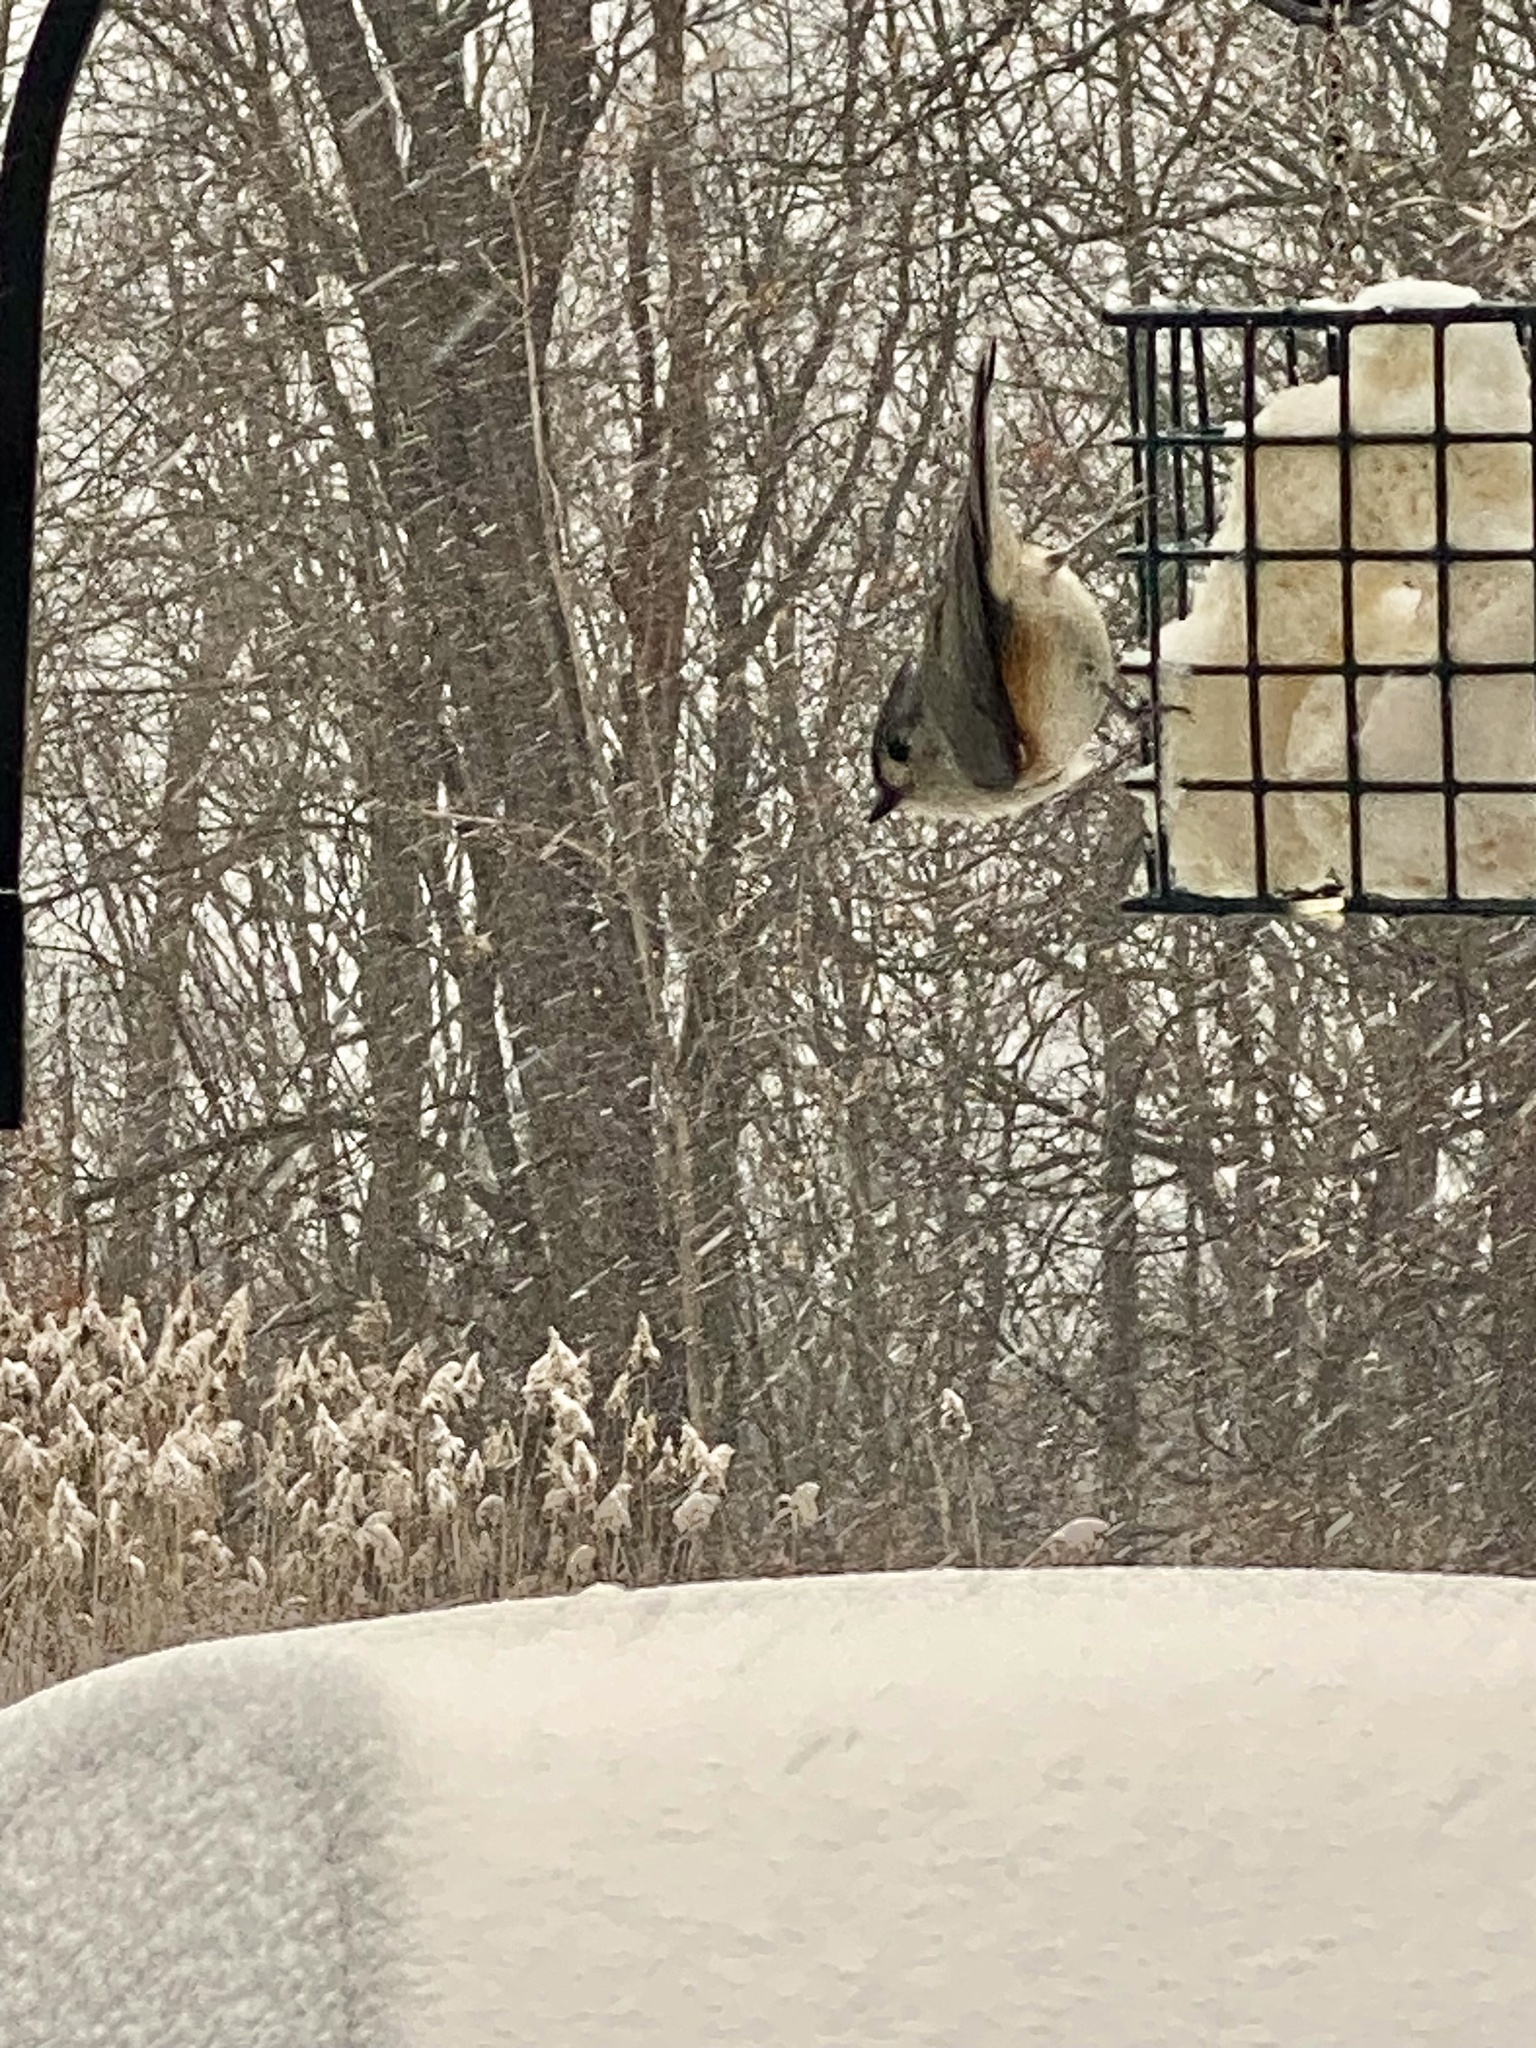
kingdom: Animalia
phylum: Chordata
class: Aves
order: Passeriformes
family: Paridae
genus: Baeolophus
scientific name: Baeolophus bicolor
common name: Tufted titmouse
